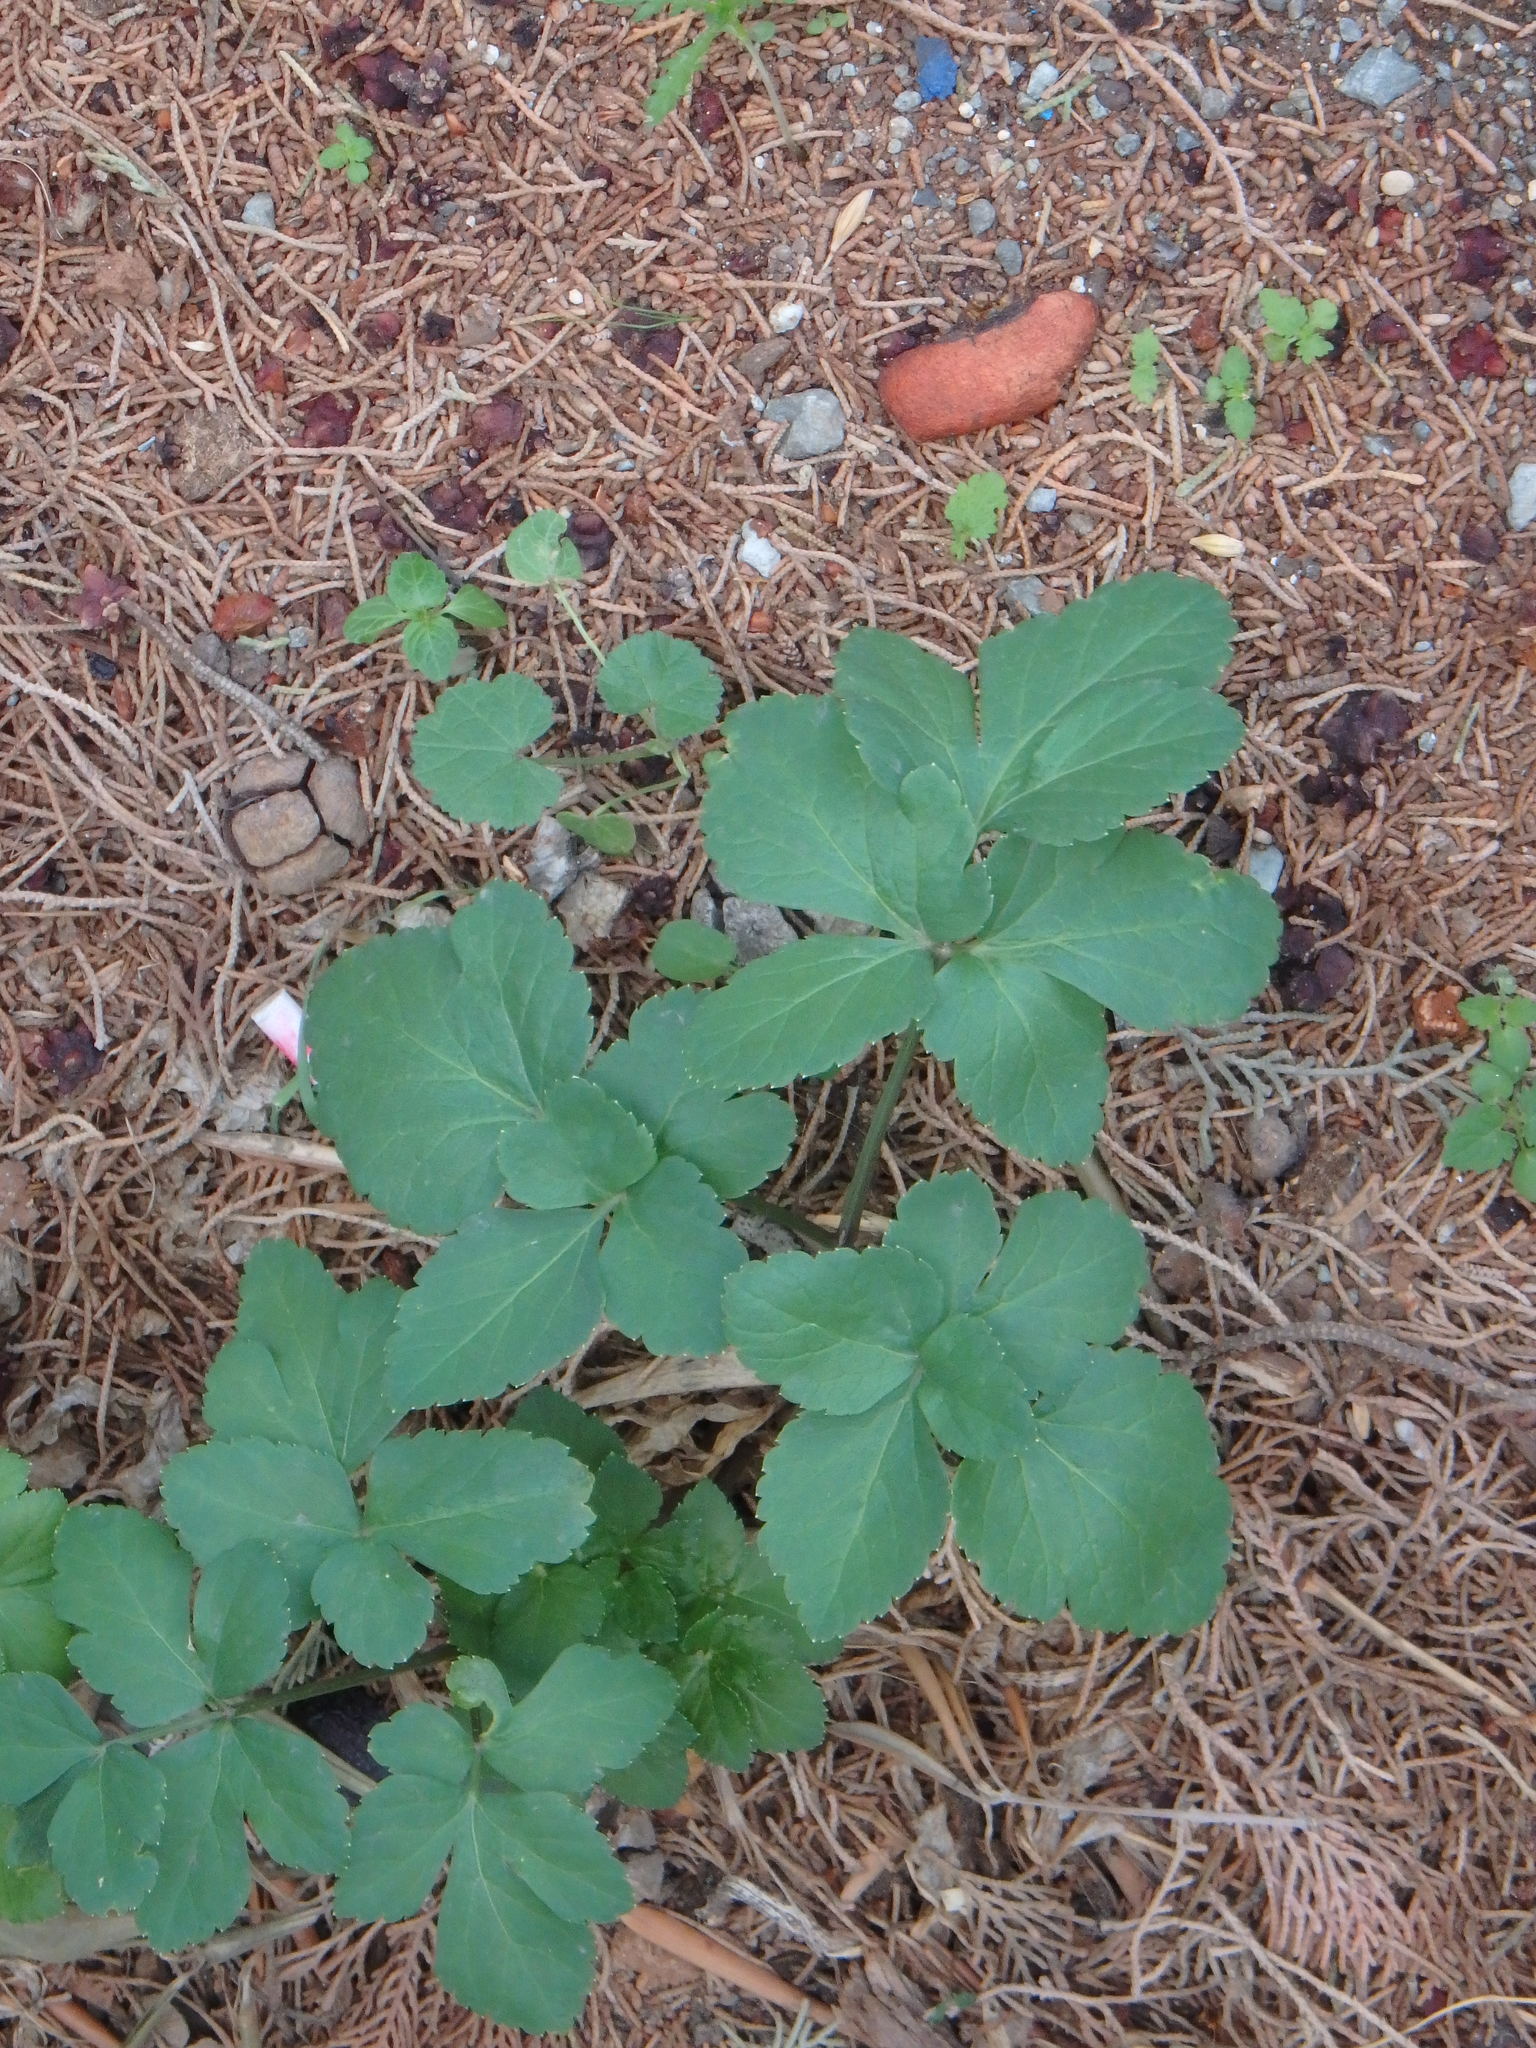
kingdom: Plantae
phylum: Tracheophyta
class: Magnoliopsida
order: Apiales
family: Apiaceae
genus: Smyrnium
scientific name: Smyrnium olusatrum
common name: Alexanders
